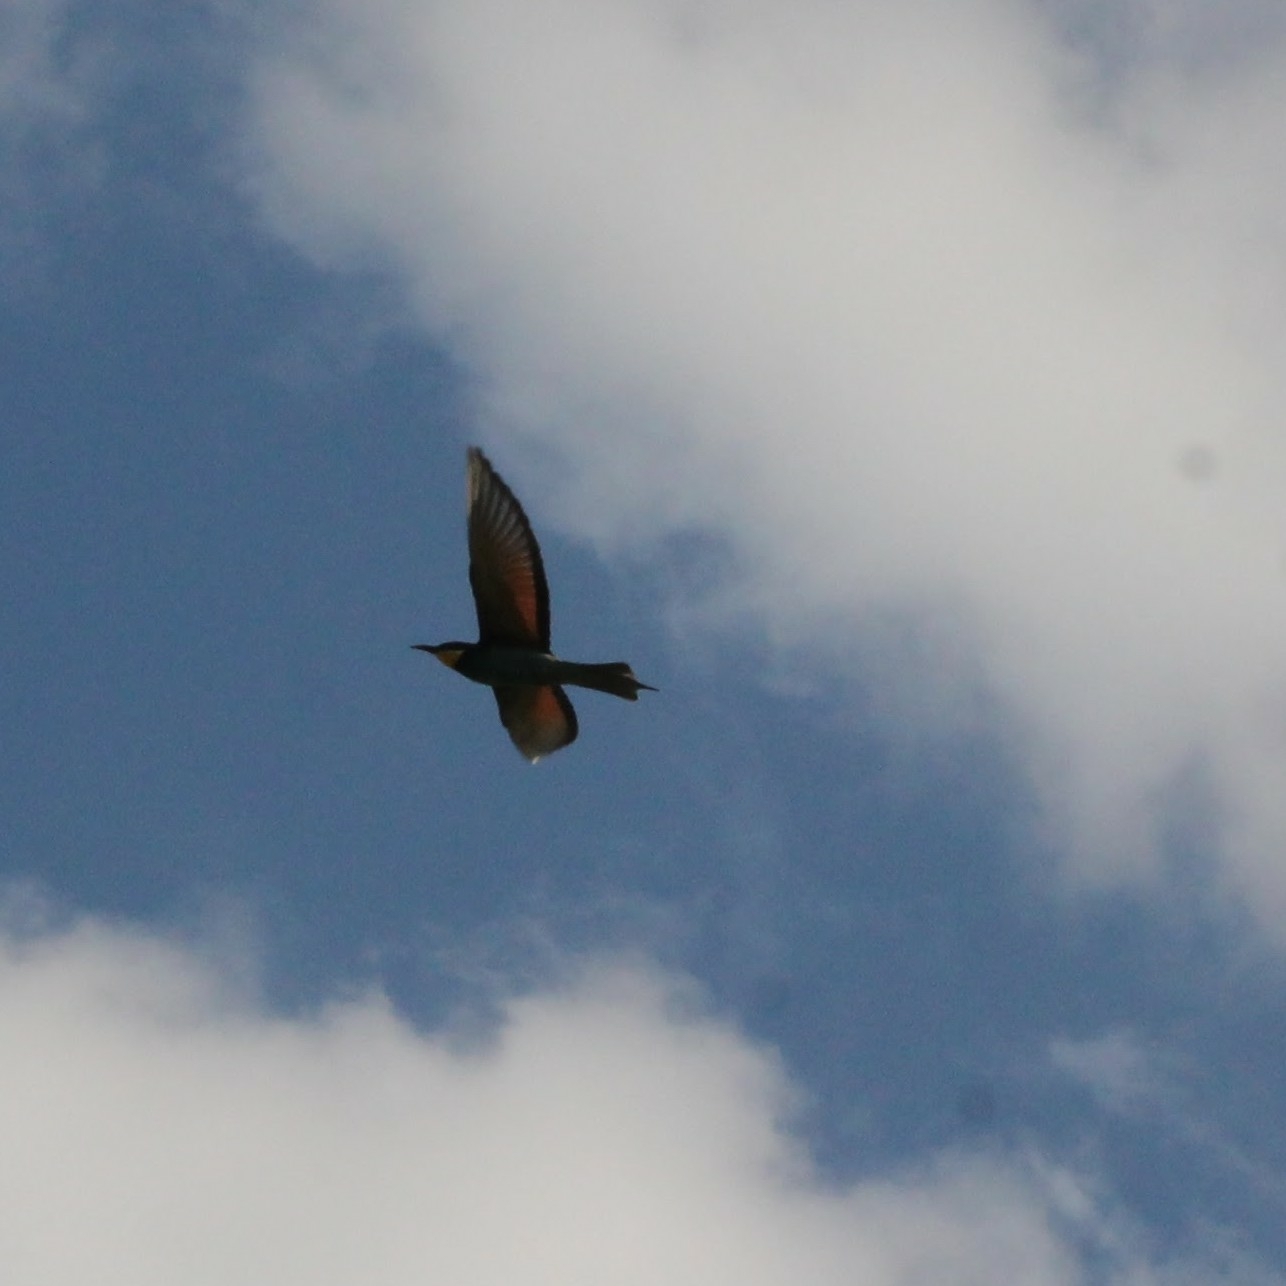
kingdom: Animalia
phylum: Chordata
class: Aves
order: Coraciiformes
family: Meropidae
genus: Merops
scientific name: Merops apiaster
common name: European bee-eater
